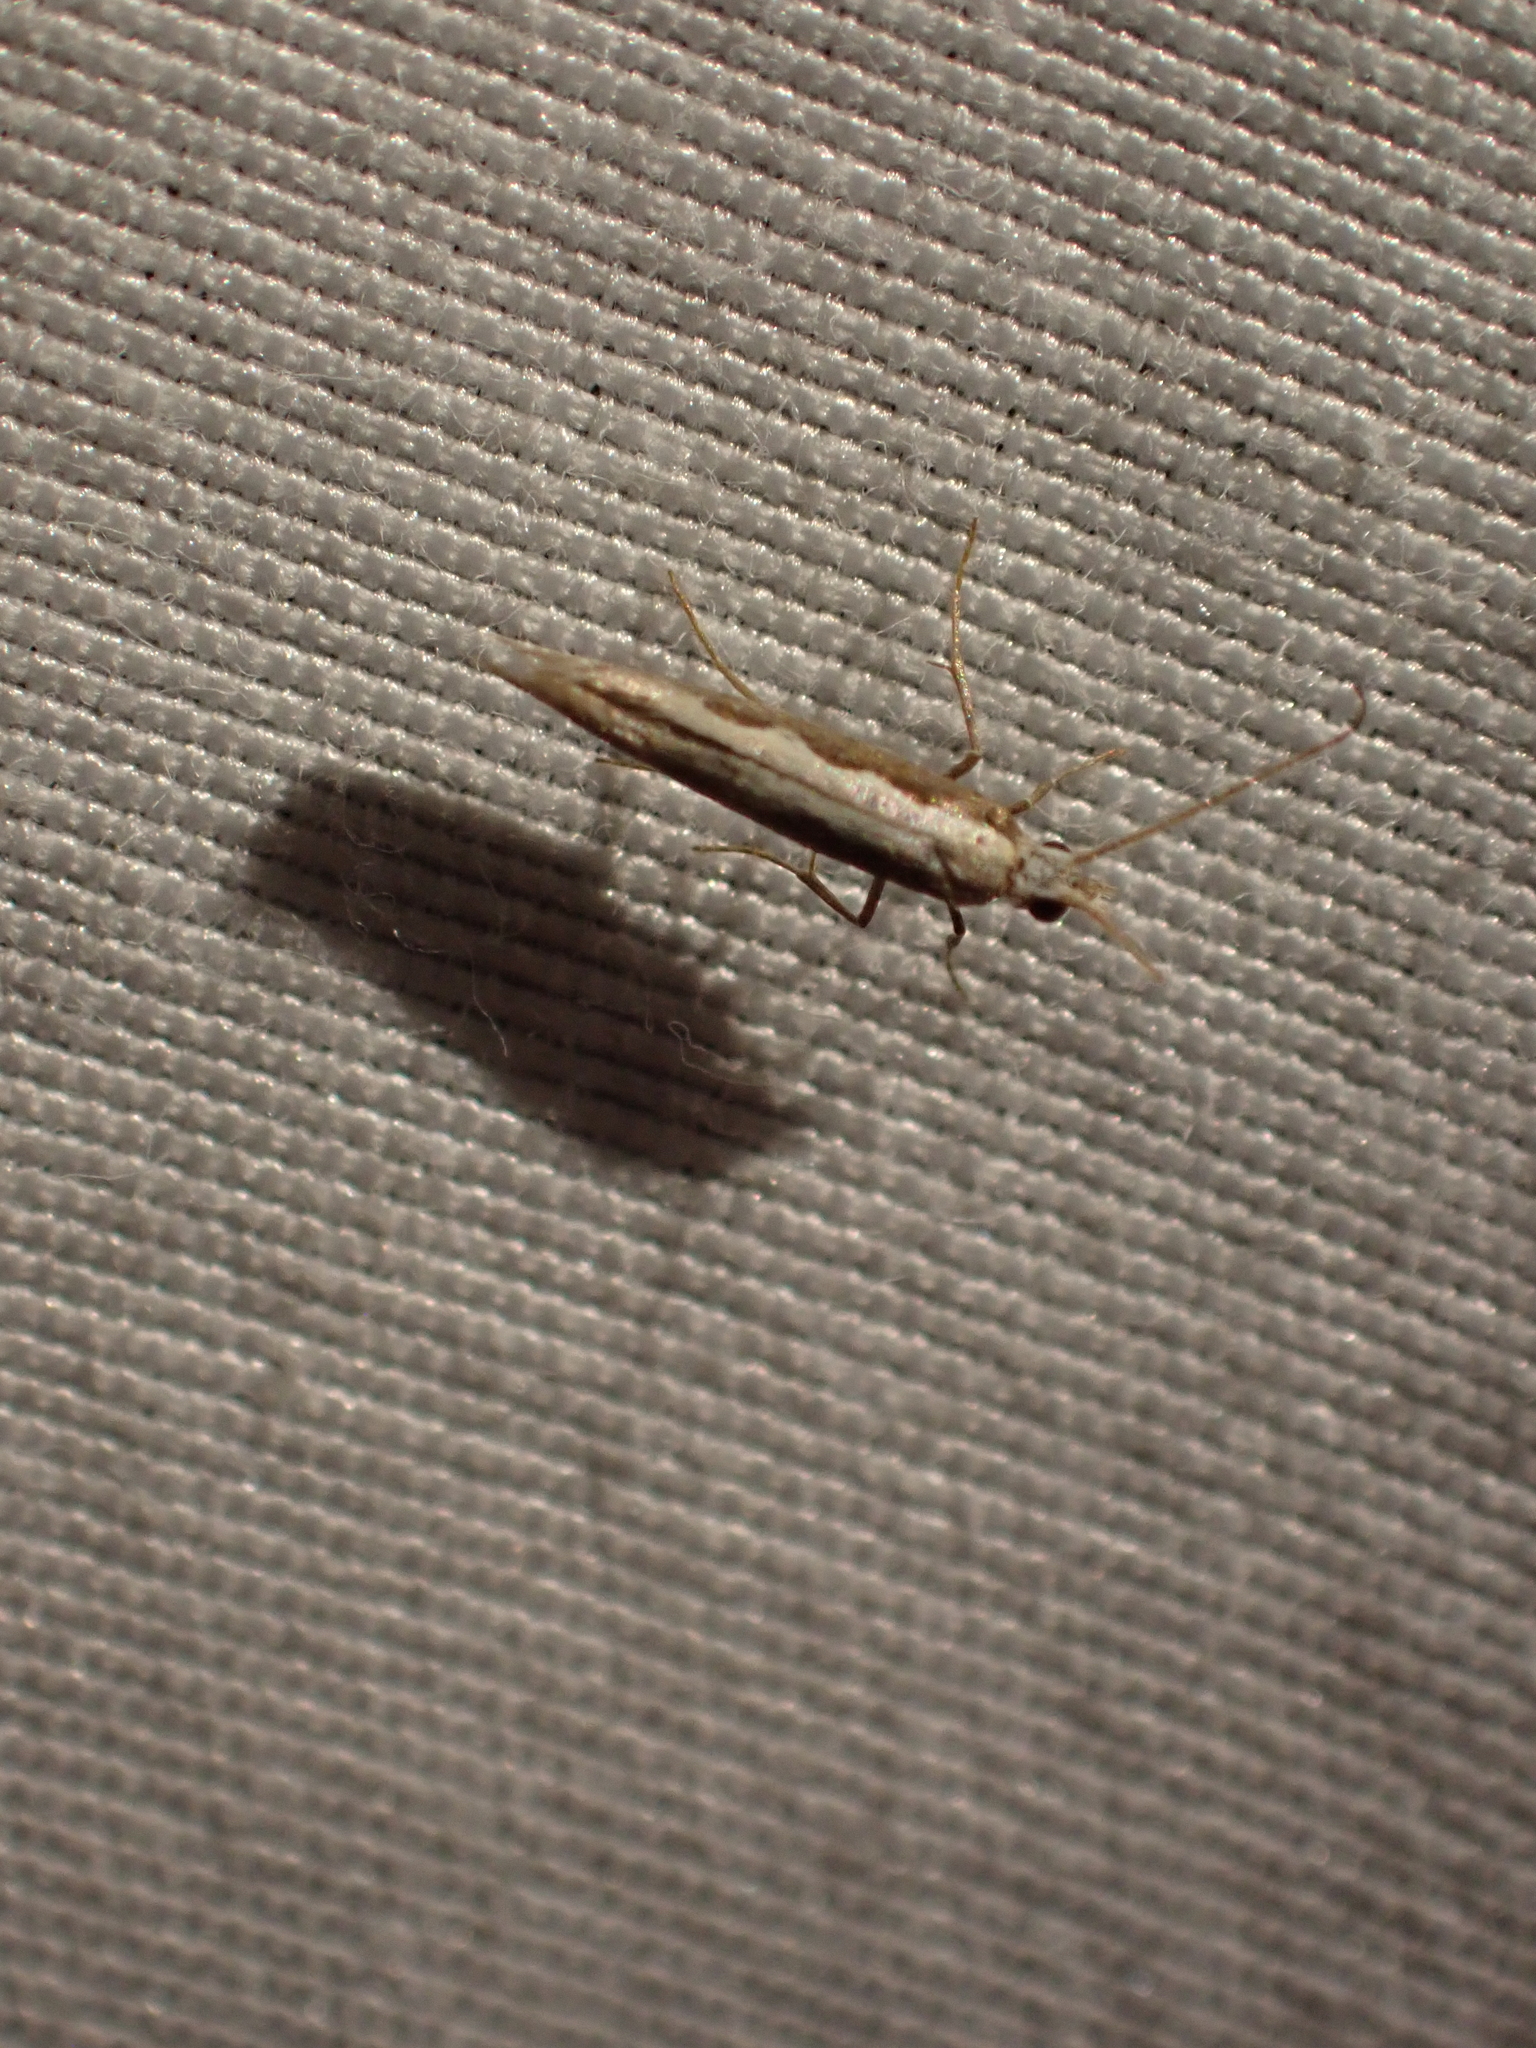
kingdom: Animalia
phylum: Arthropoda
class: Insecta
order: Lepidoptera
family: Plutellidae
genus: Plutella
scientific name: Plutella xylostella
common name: Diamond-back moth
